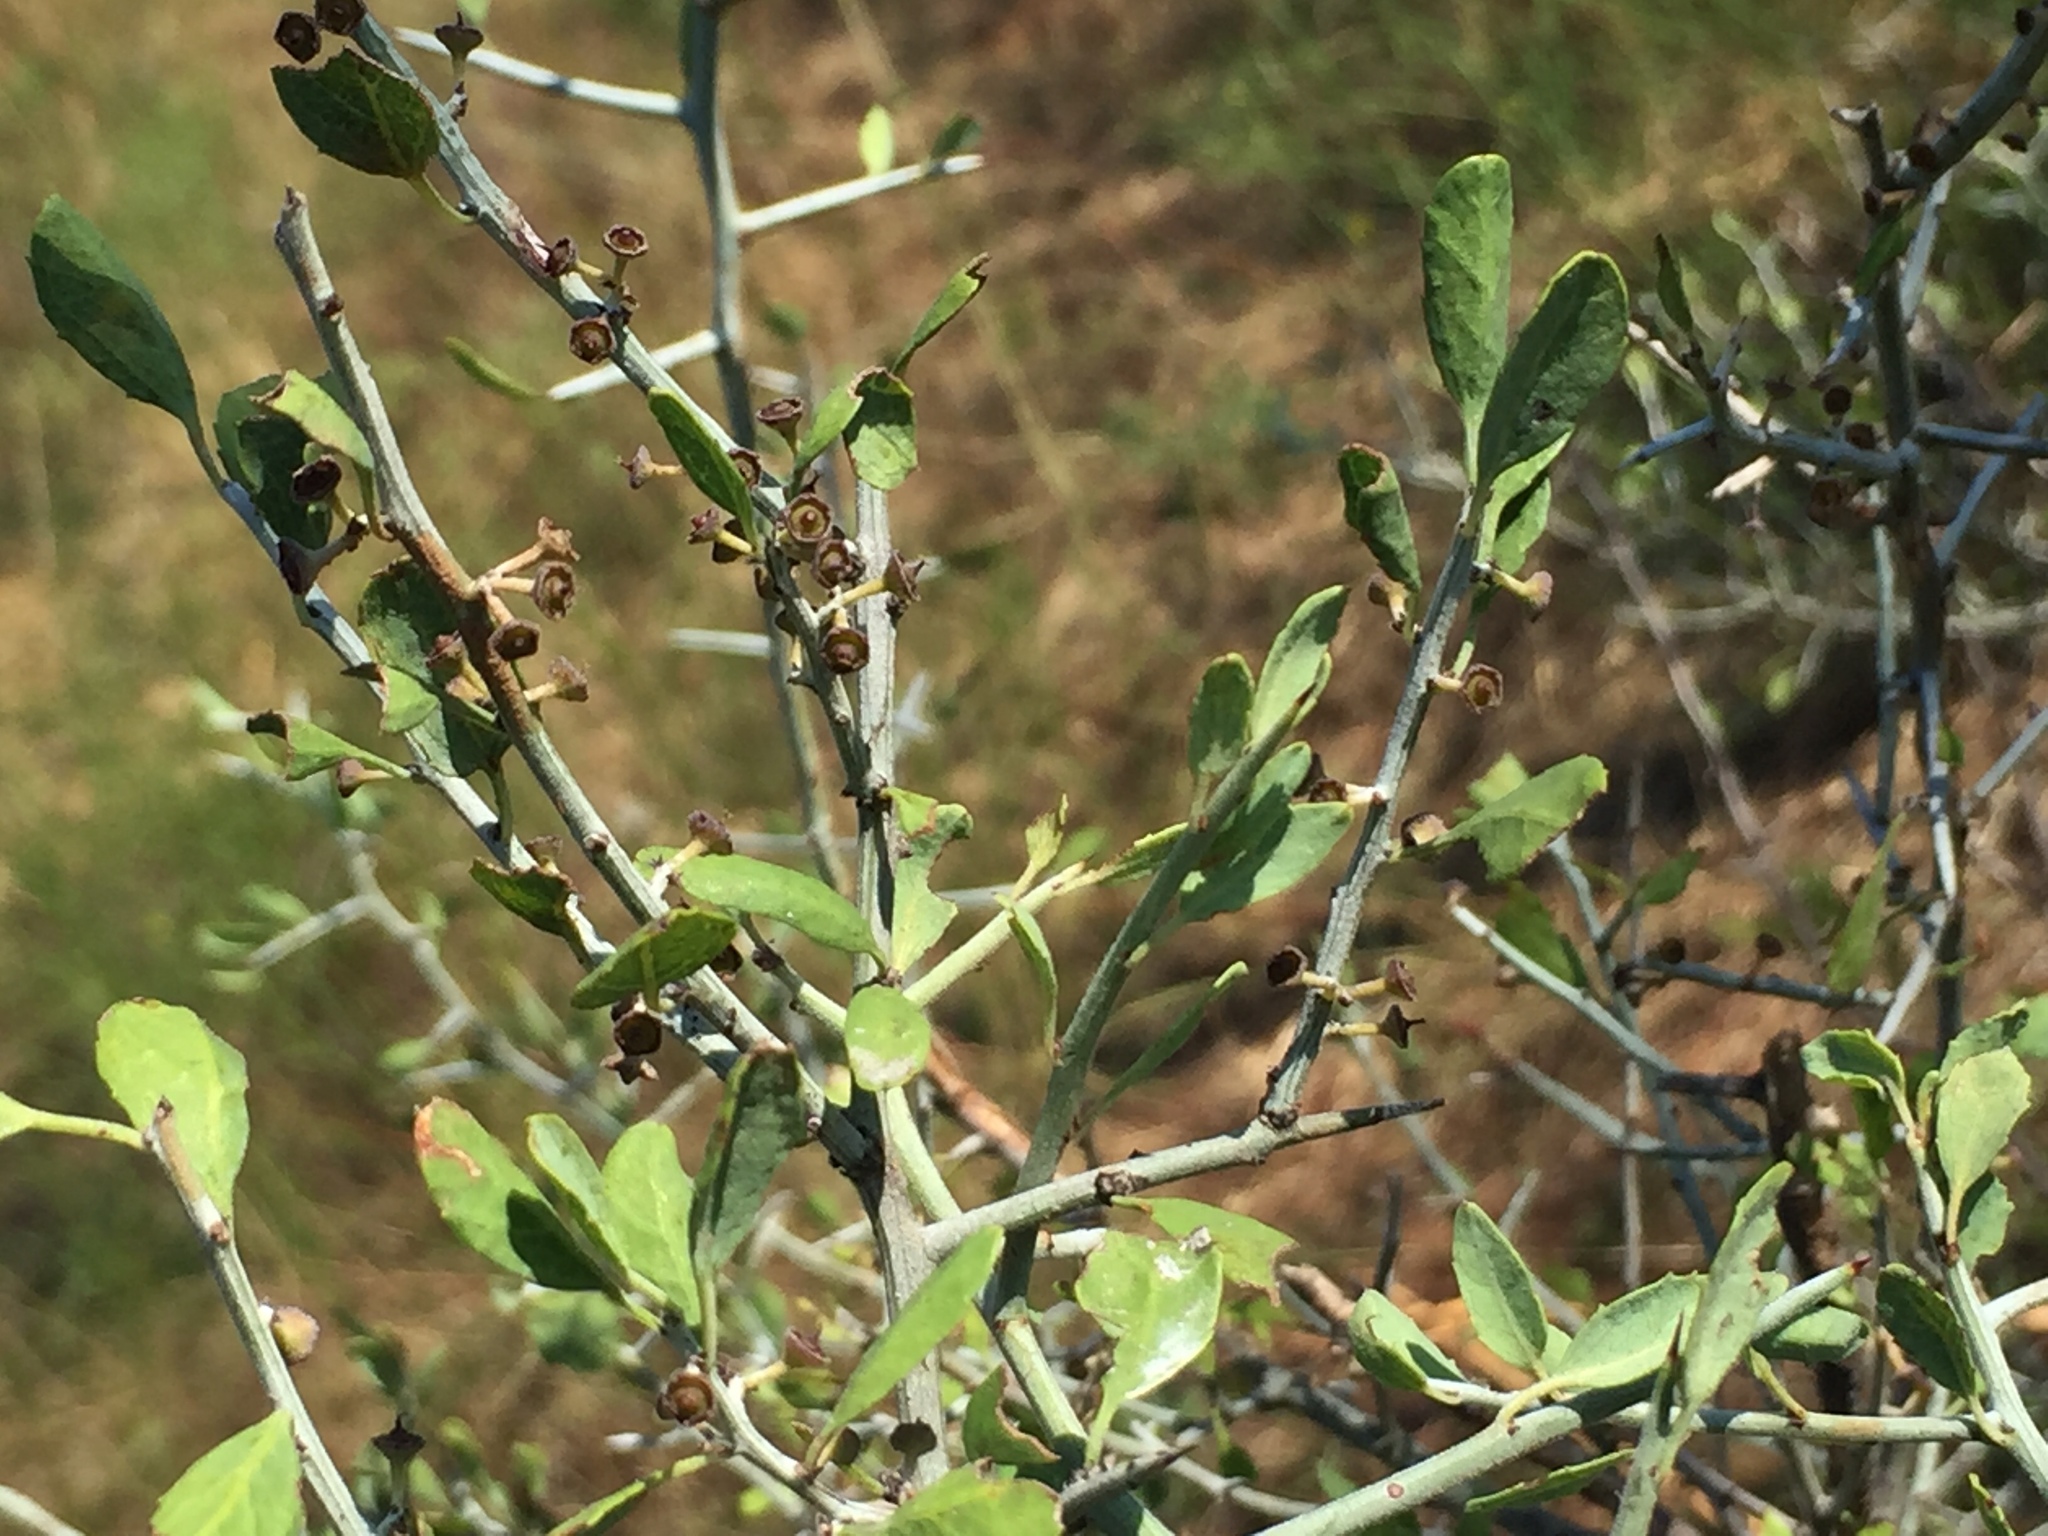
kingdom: Plantae
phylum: Tracheophyta
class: Magnoliopsida
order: Rosales
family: Rhamnaceae
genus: Sarcomphalus
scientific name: Sarcomphalus obtusifolius
